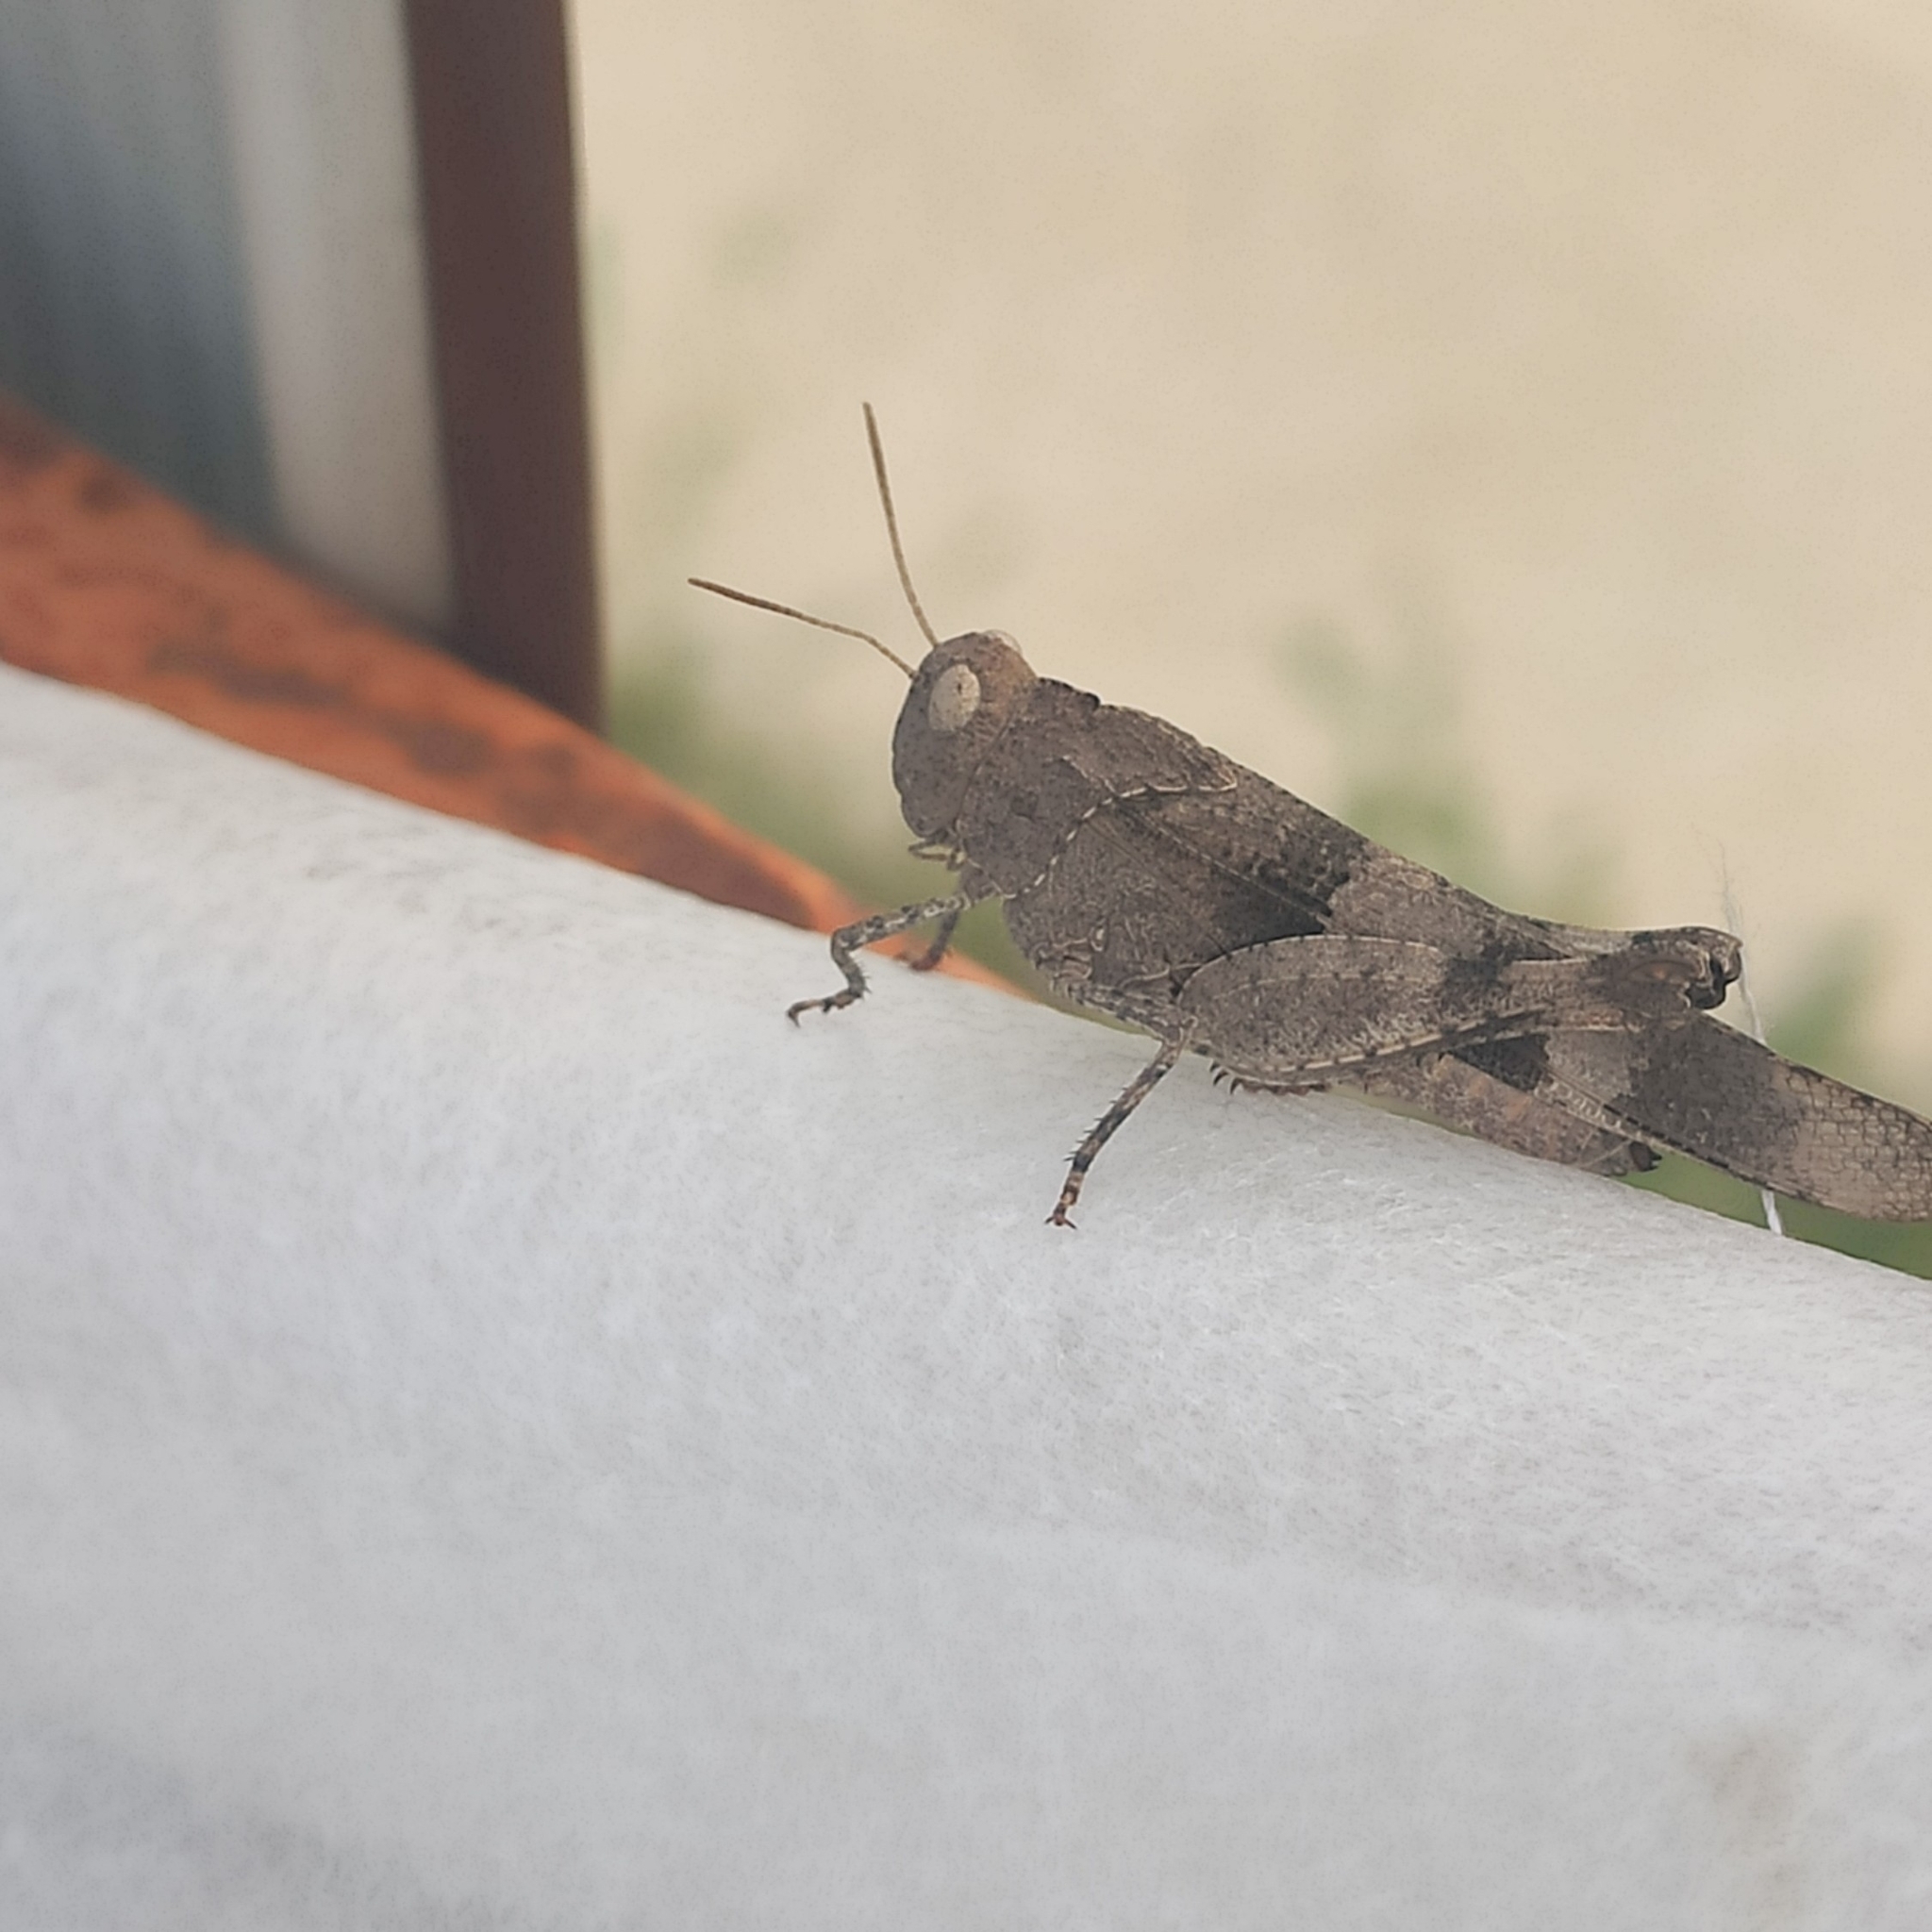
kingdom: Animalia
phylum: Arthropoda
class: Insecta
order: Orthoptera
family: Acrididae
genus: Oedipoda
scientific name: Oedipoda caerulescens
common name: Blue-winged grasshopper
